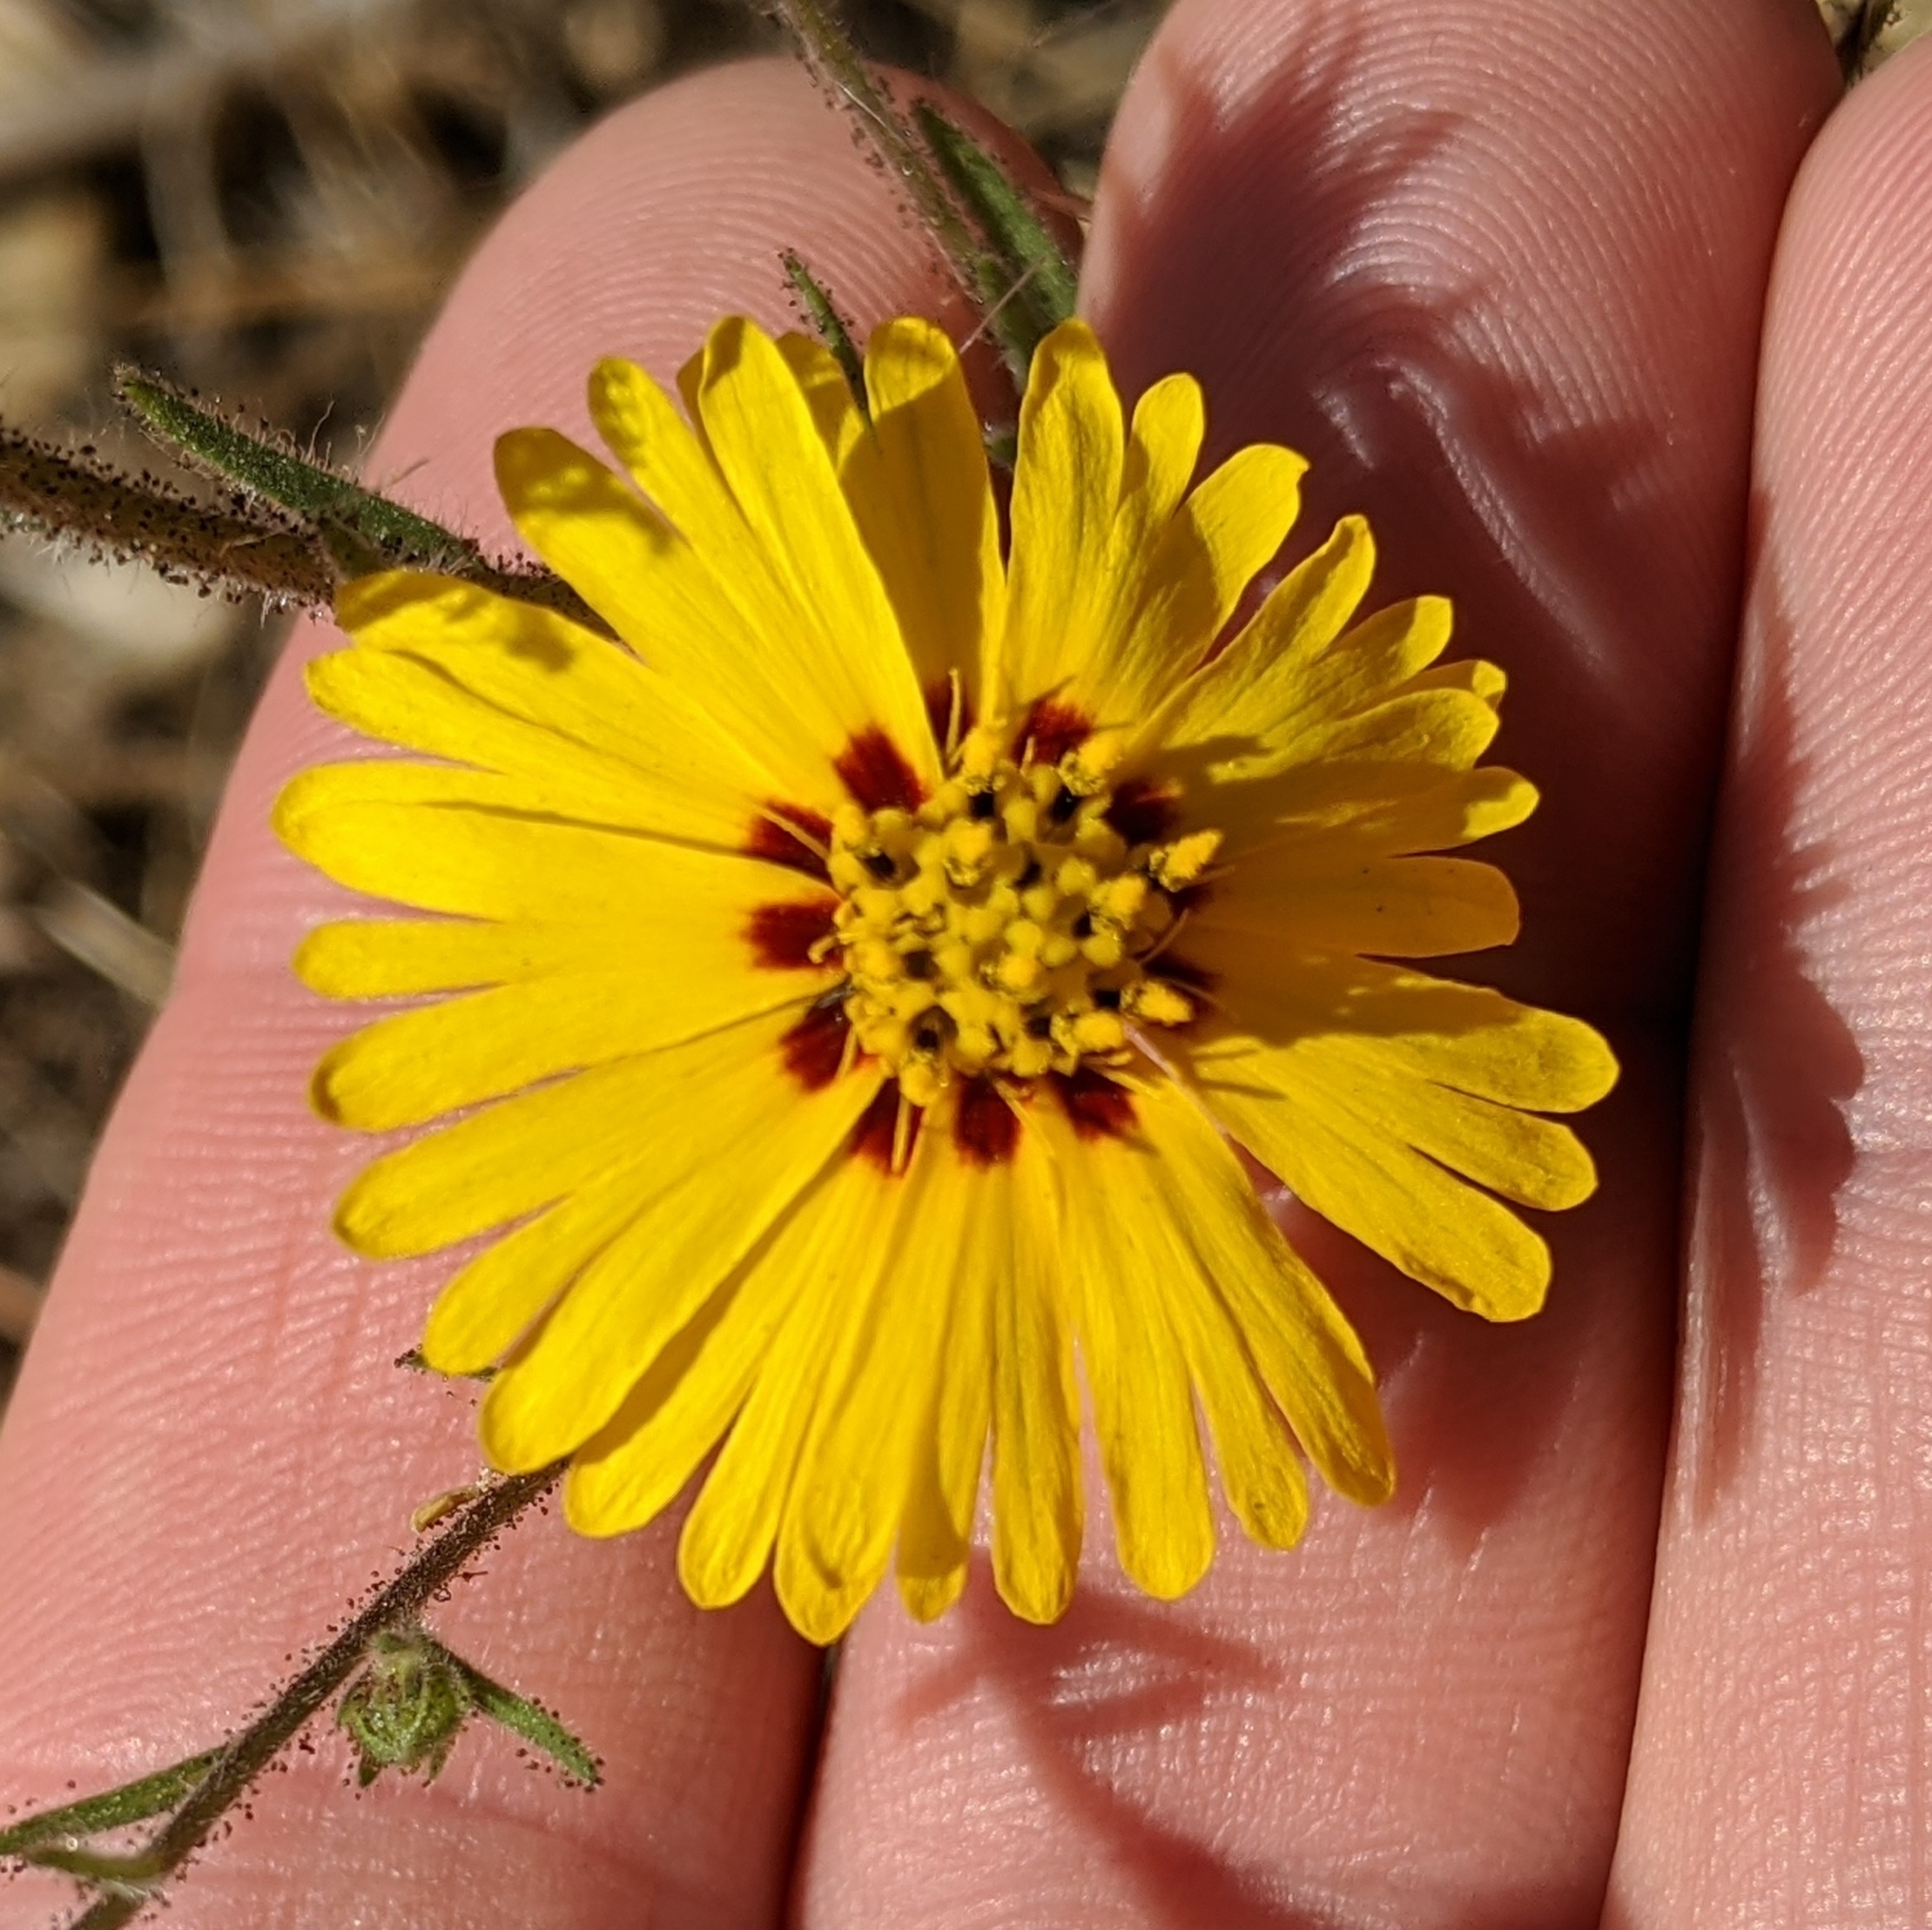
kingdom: Plantae
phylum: Tracheophyta
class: Magnoliopsida
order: Asterales
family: Asteraceae
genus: Madia
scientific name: Madia elegans
